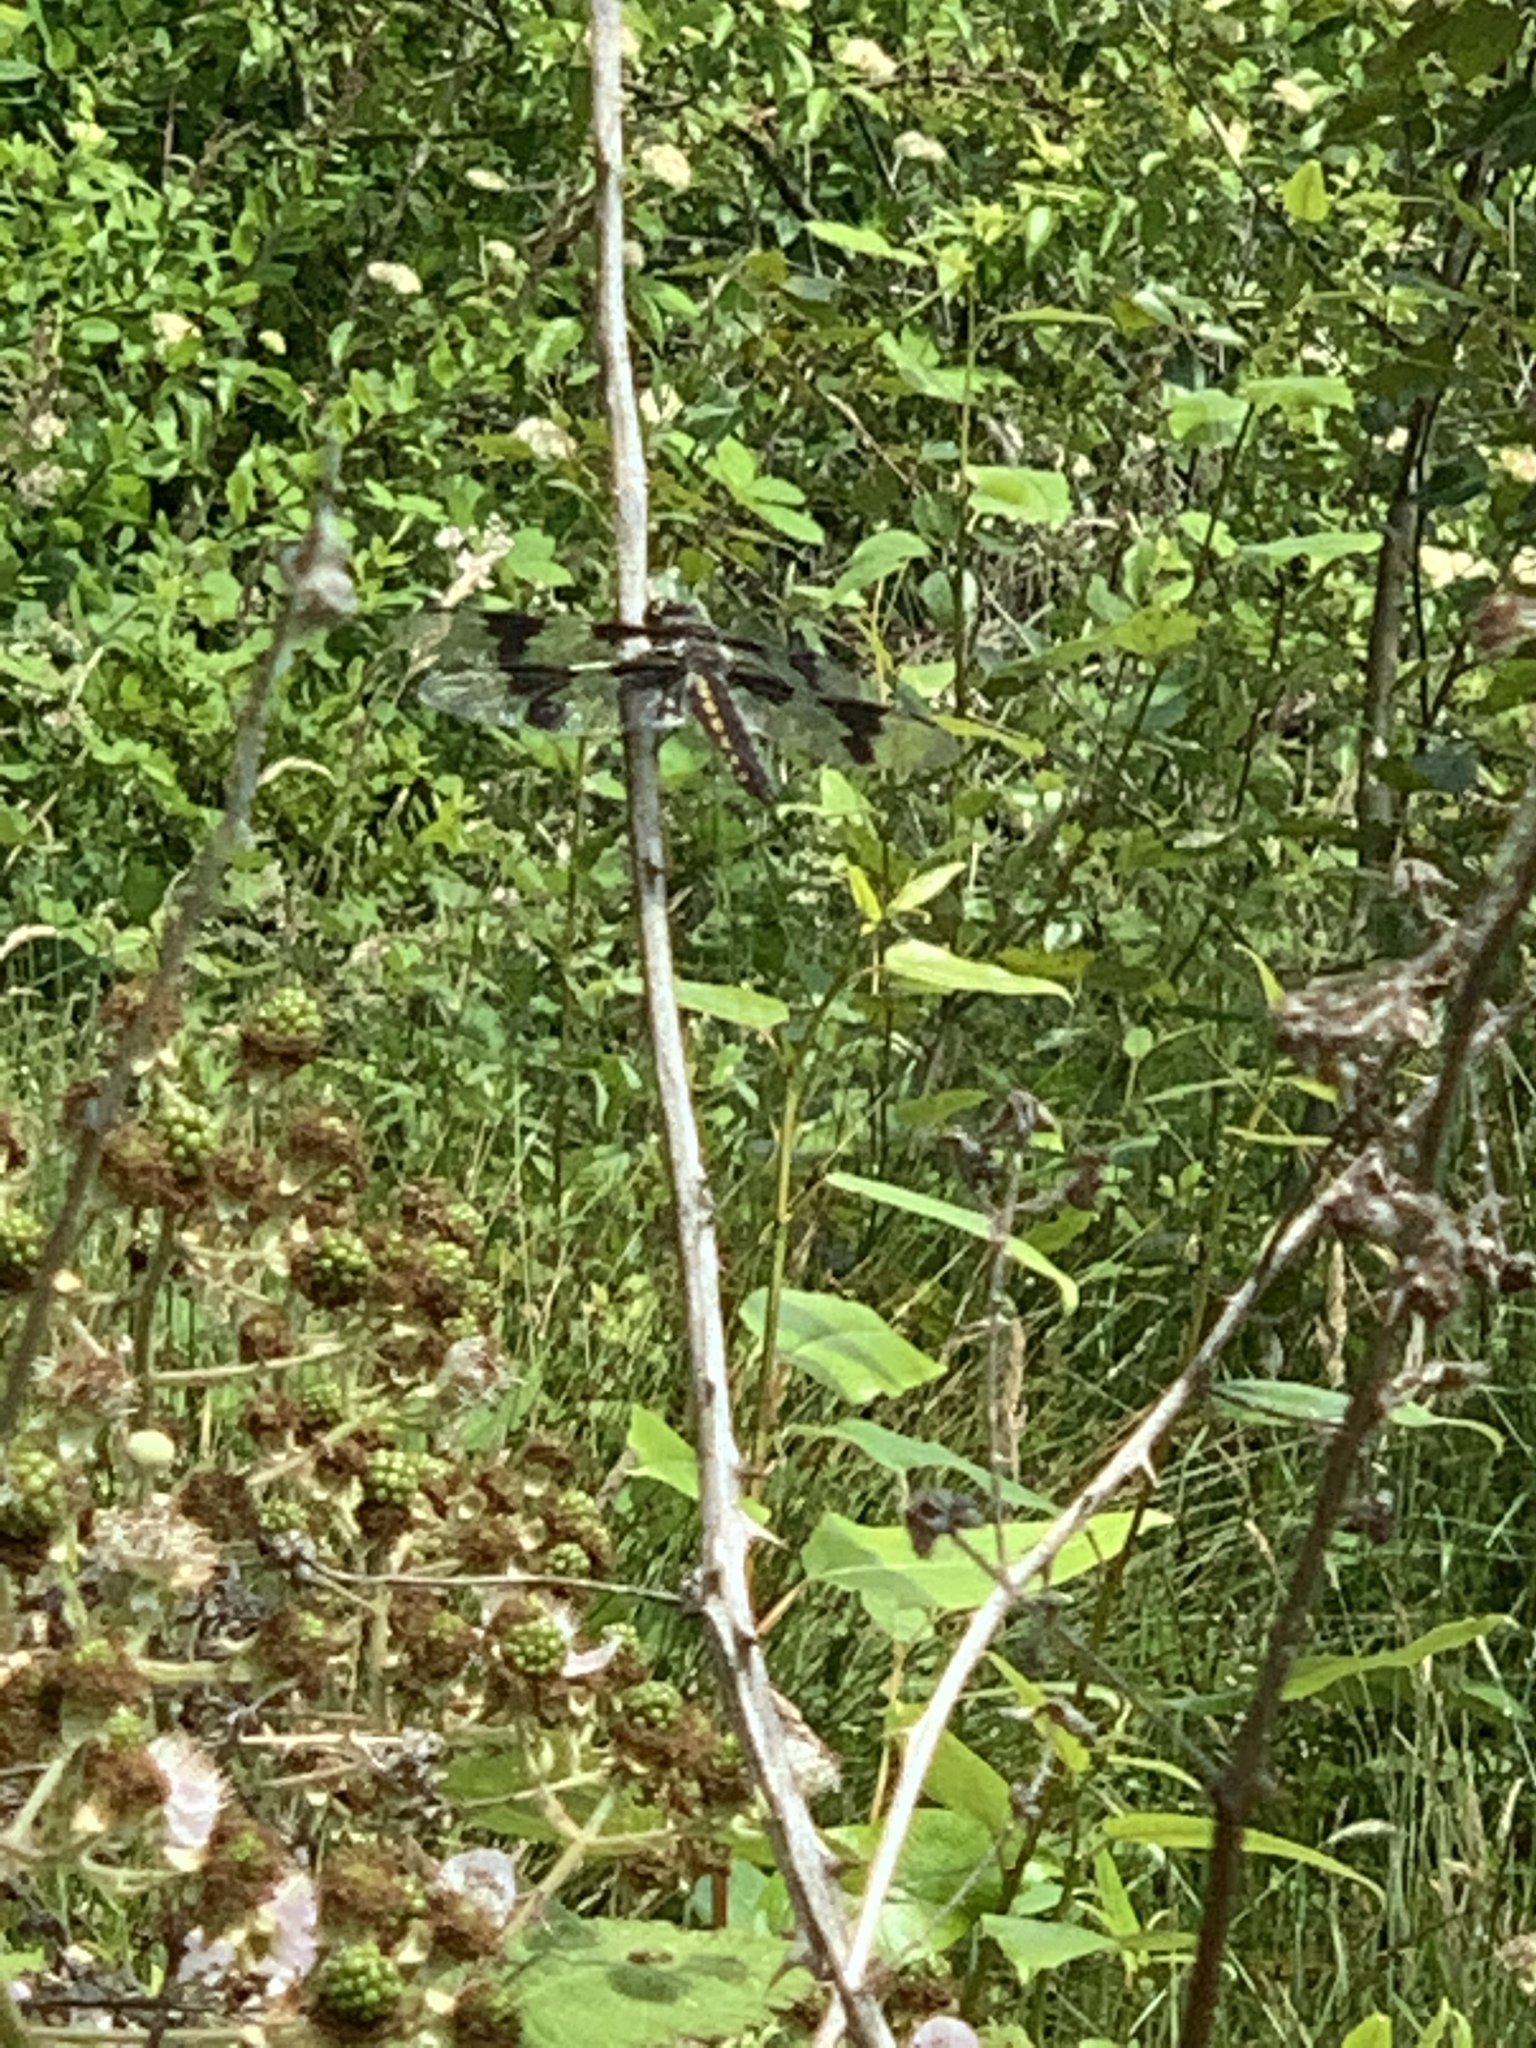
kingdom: Animalia
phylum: Arthropoda
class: Insecta
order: Odonata
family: Libellulidae
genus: Libellula
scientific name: Libellula forensis
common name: Eight-spotted skimmer
